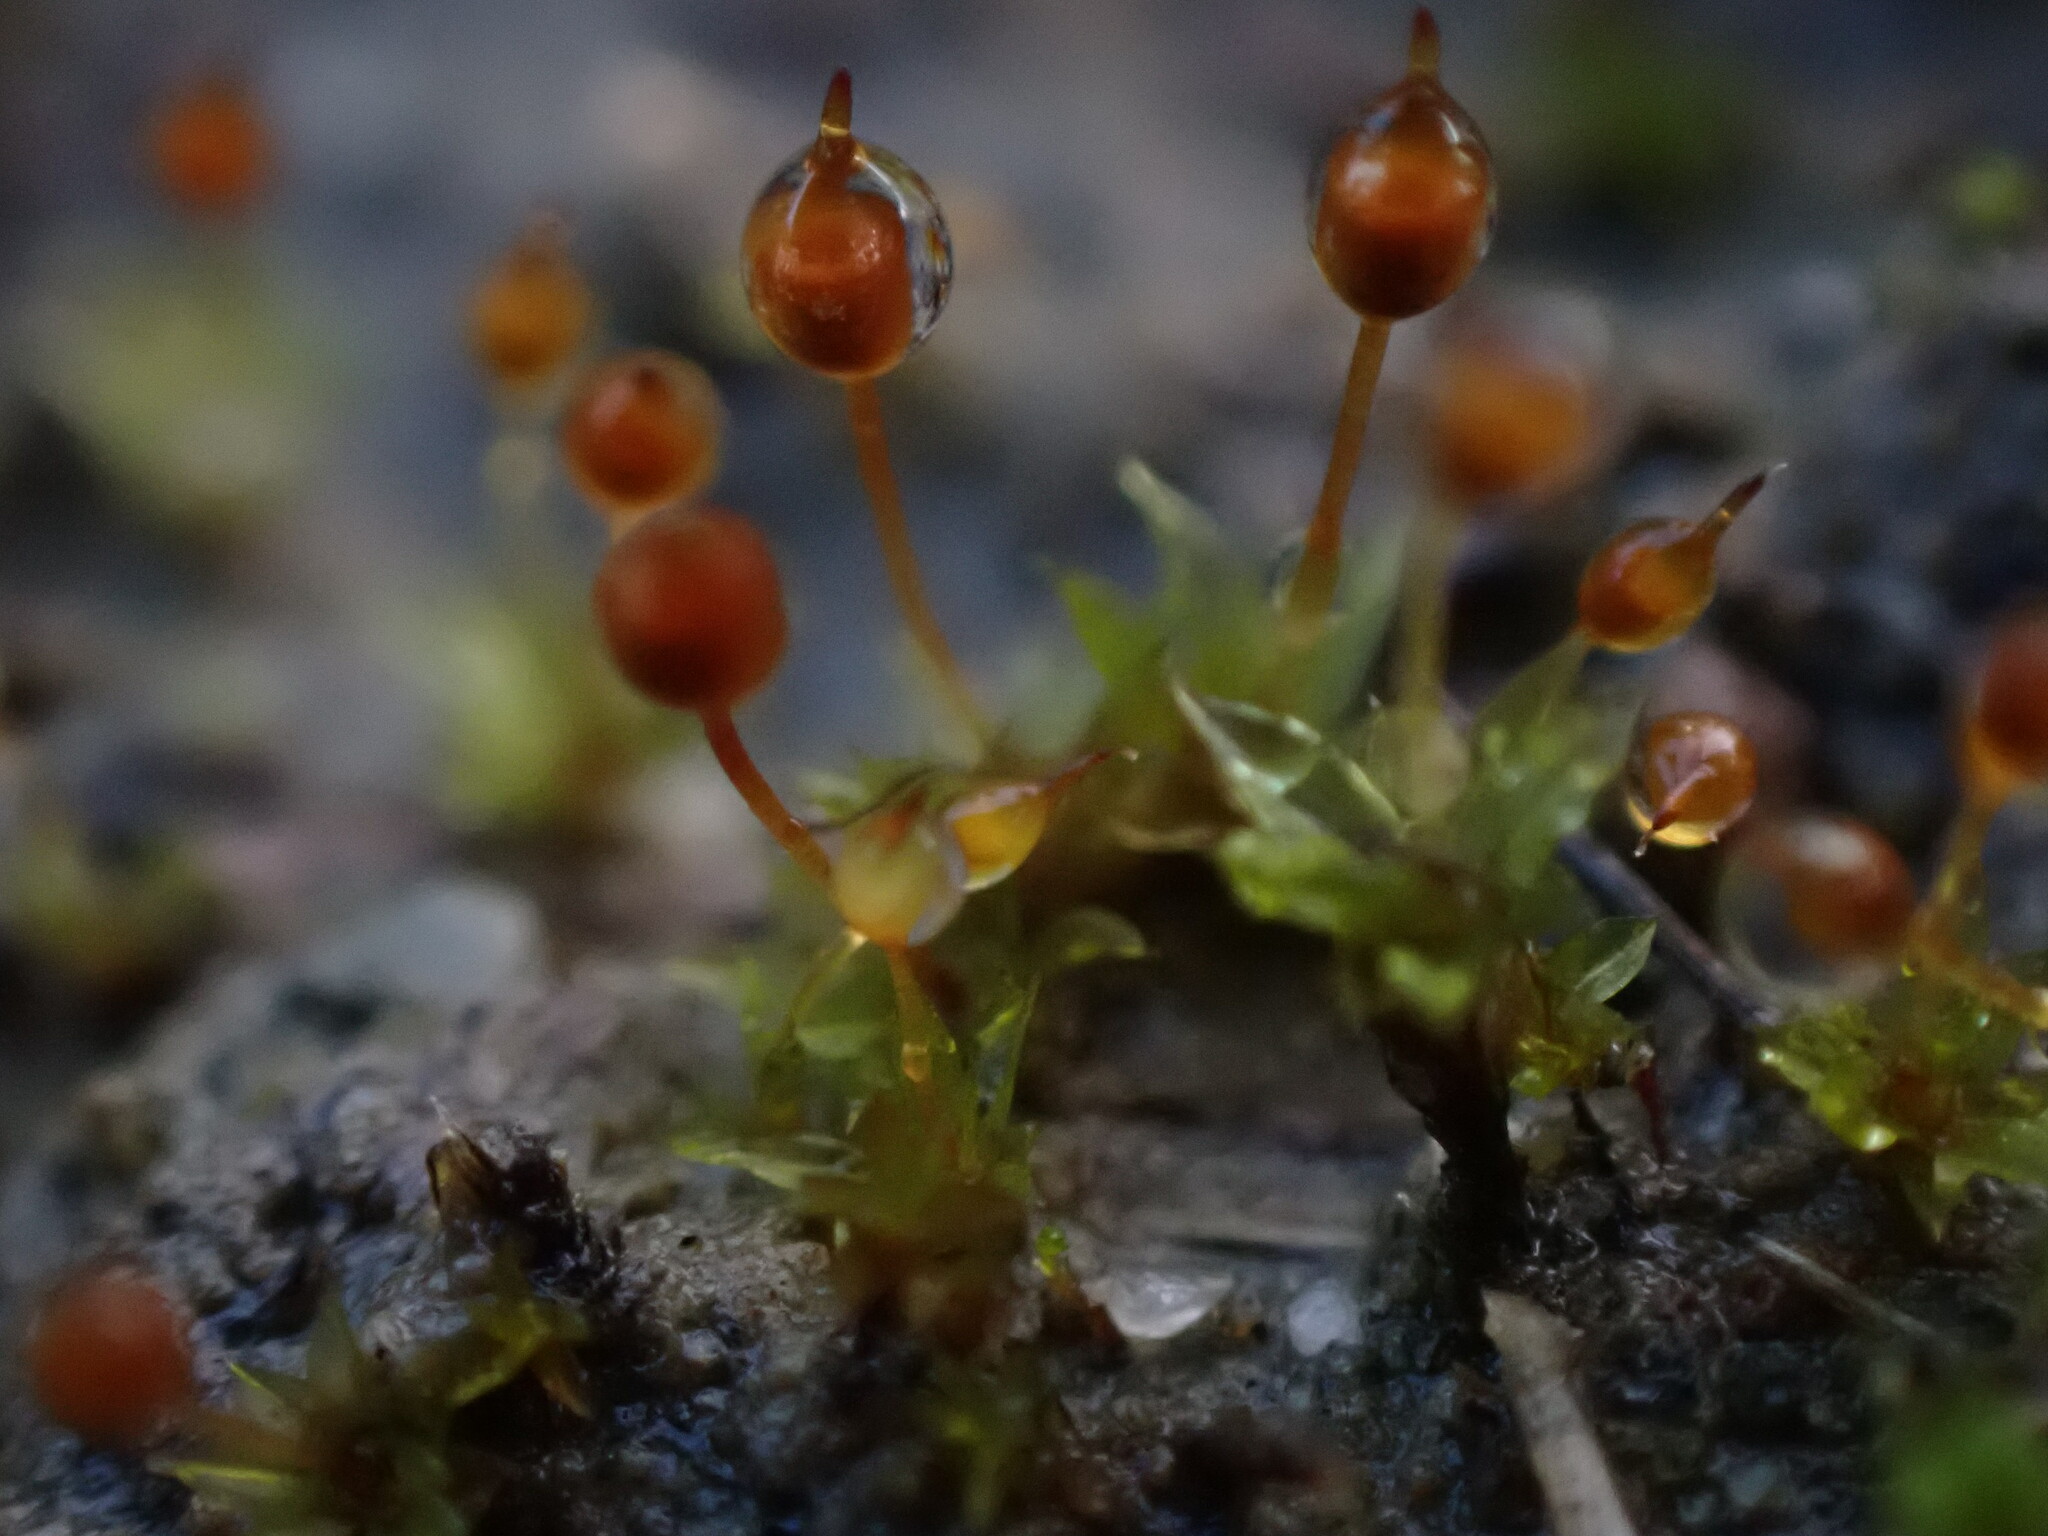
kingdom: Plantae
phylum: Bryophyta
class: Bryopsida
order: Pottiales
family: Pottiaceae
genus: Tortula
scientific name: Tortula truncata
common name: Truncated screw moss
